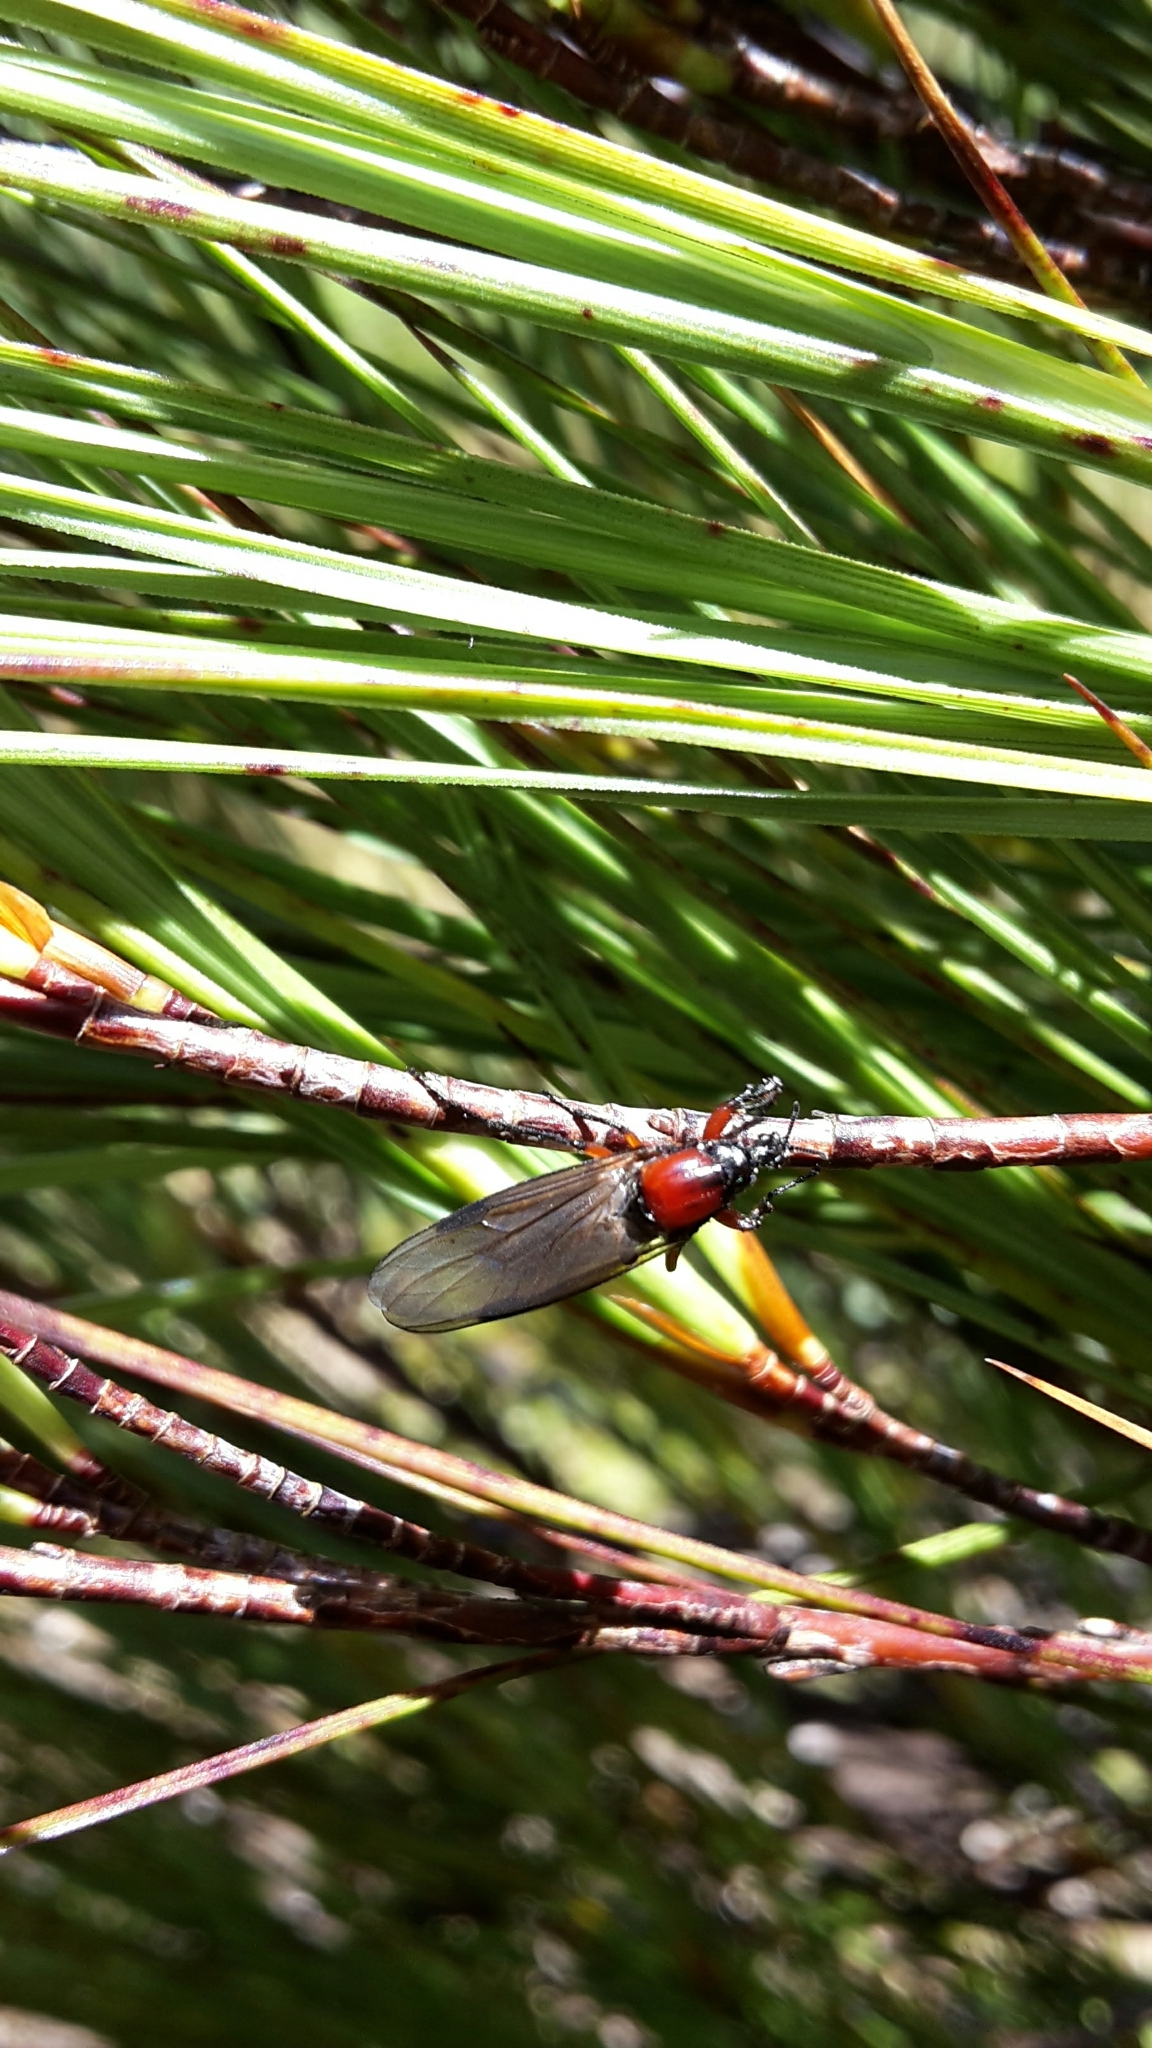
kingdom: Animalia
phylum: Arthropoda
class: Insecta
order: Diptera
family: Bibionidae
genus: Dilophus
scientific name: Dilophus nigrostigma
